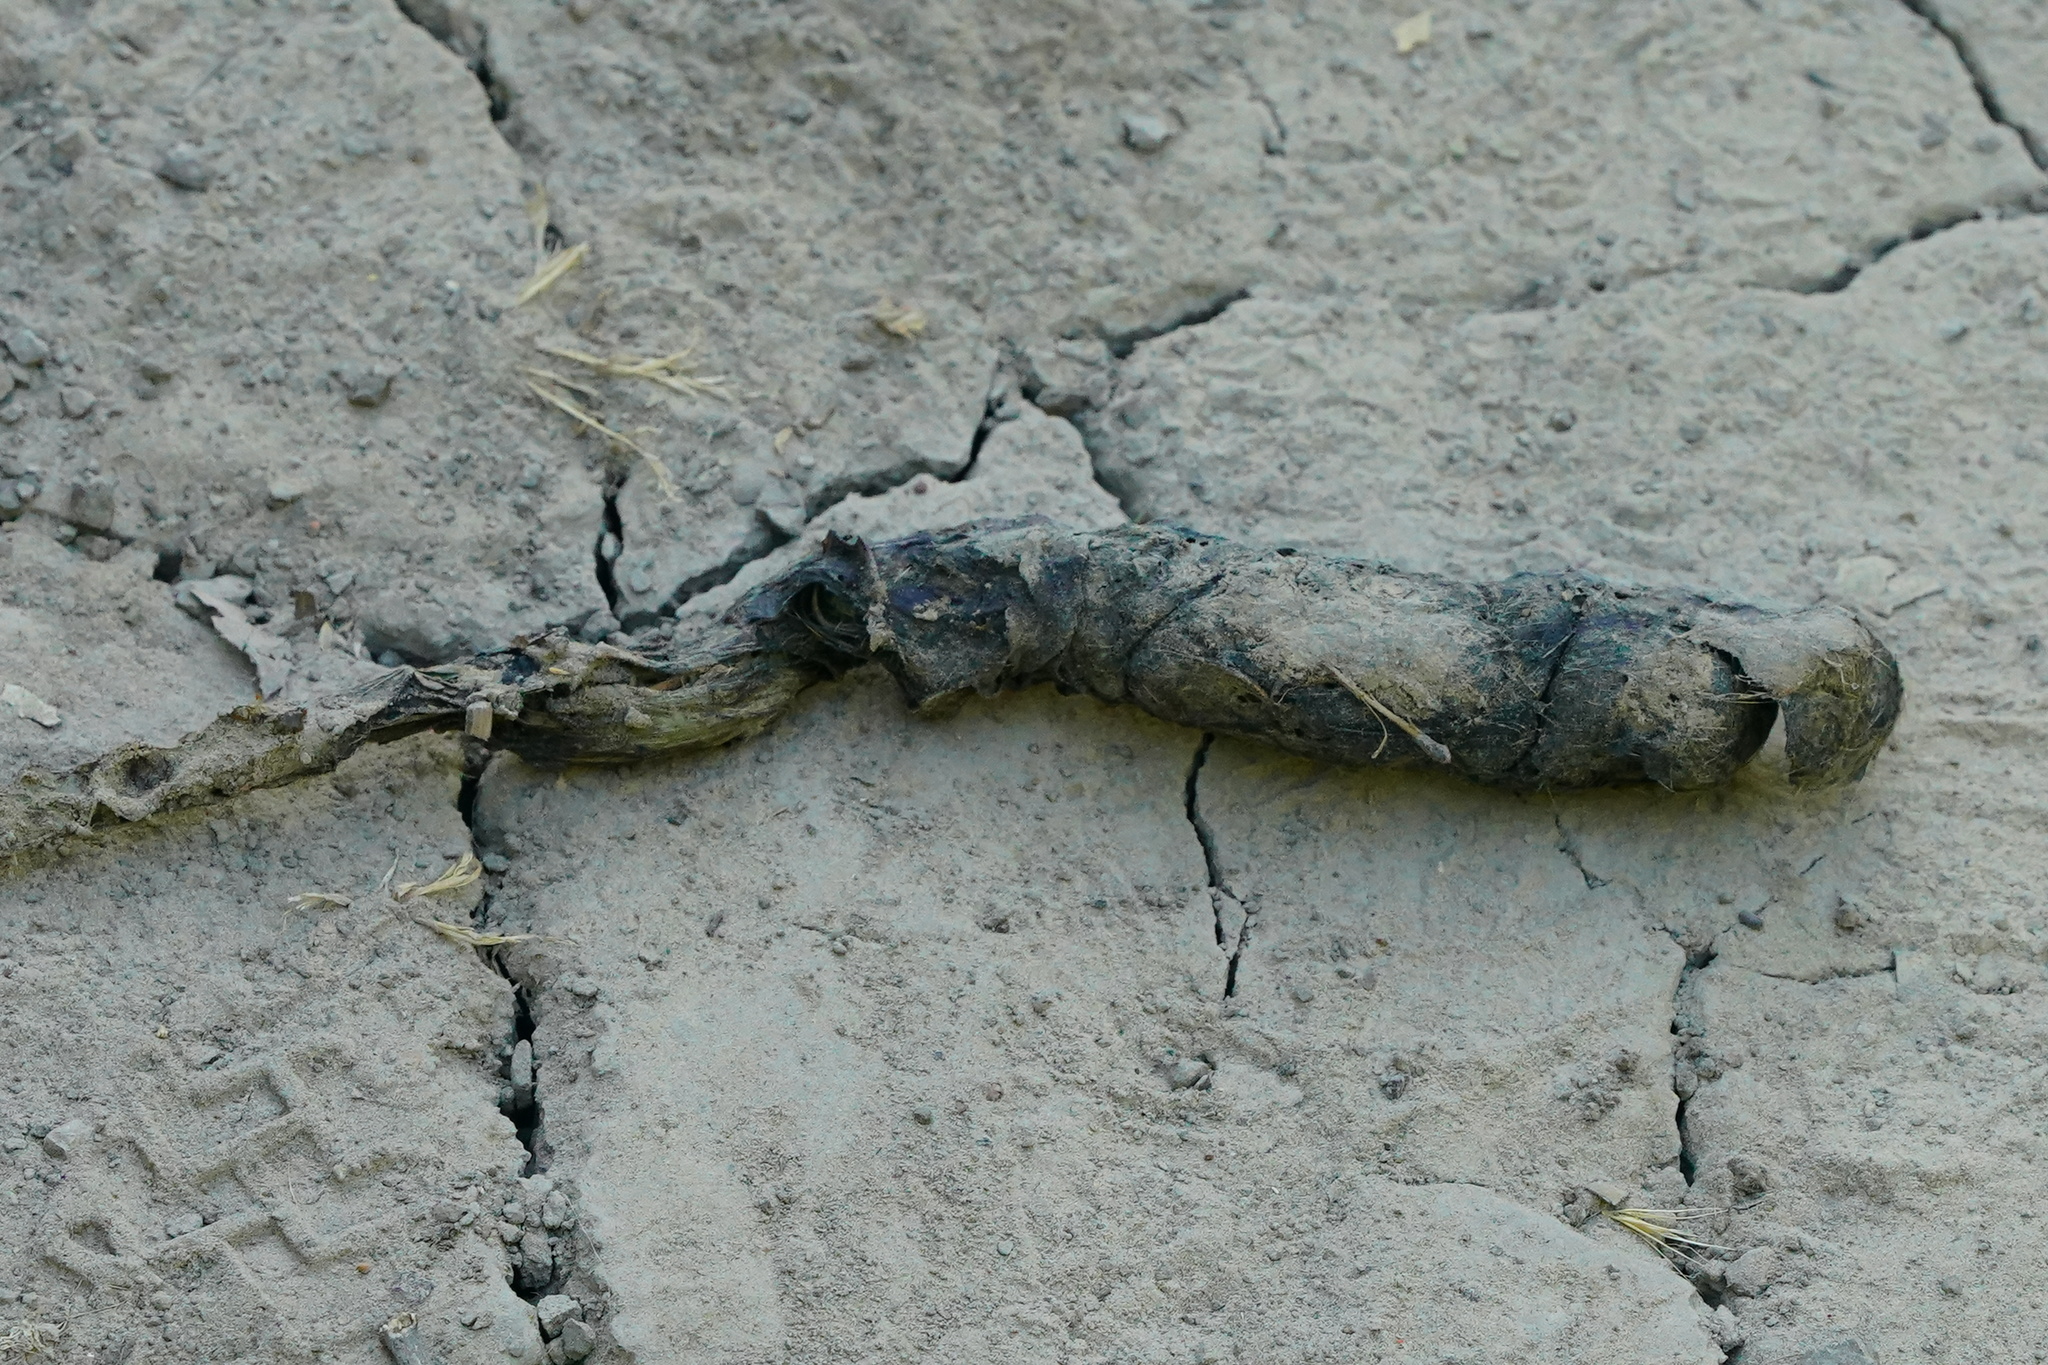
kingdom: Animalia
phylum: Chordata
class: Mammalia
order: Carnivora
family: Canidae
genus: Canis
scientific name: Canis latrans
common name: Coyote
